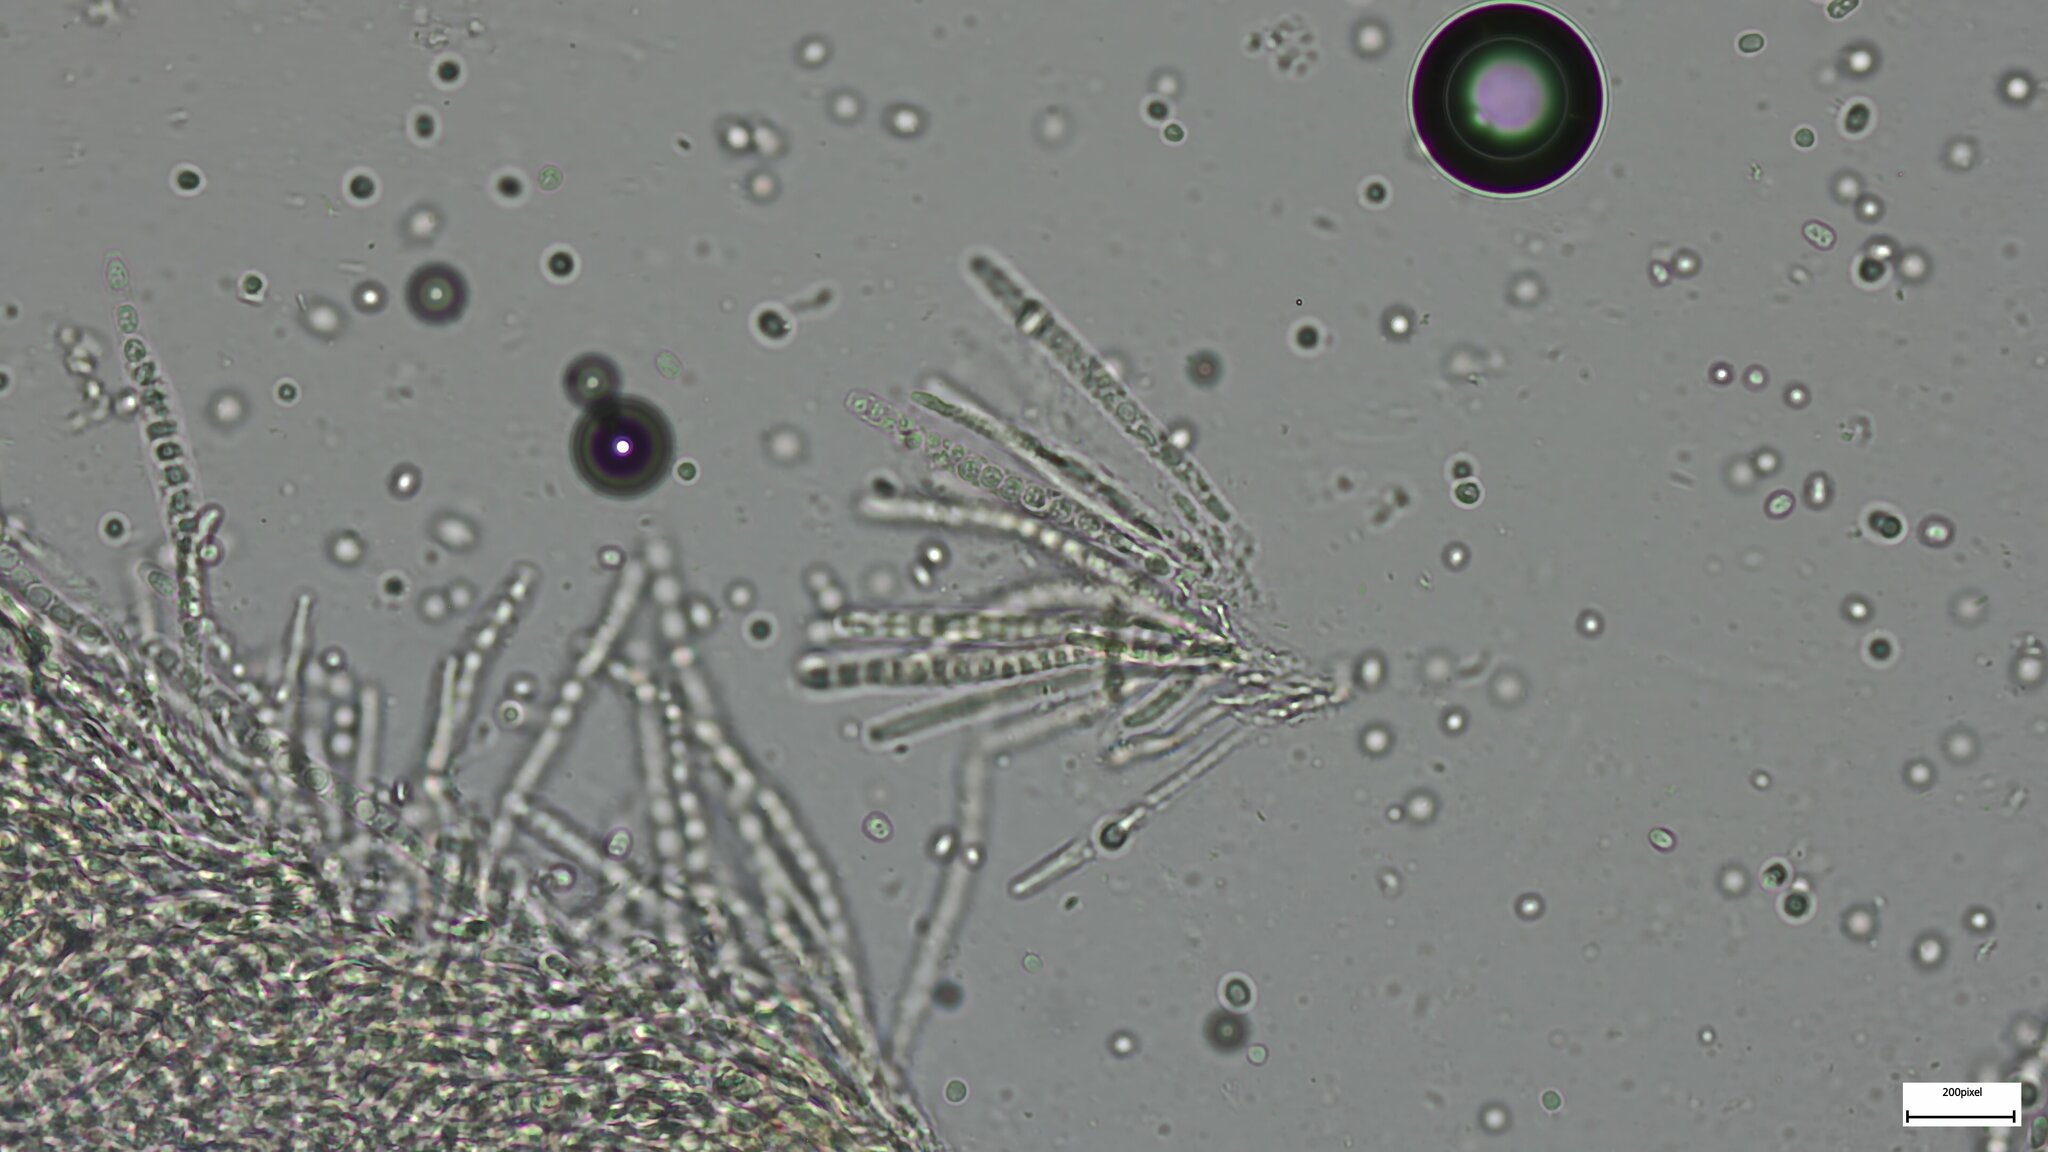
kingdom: Fungi
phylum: Ascomycota
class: Sordariomycetes
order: Hypocreales
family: Hypocreaceae
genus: Trichoderma
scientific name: Trichoderma peltatum
